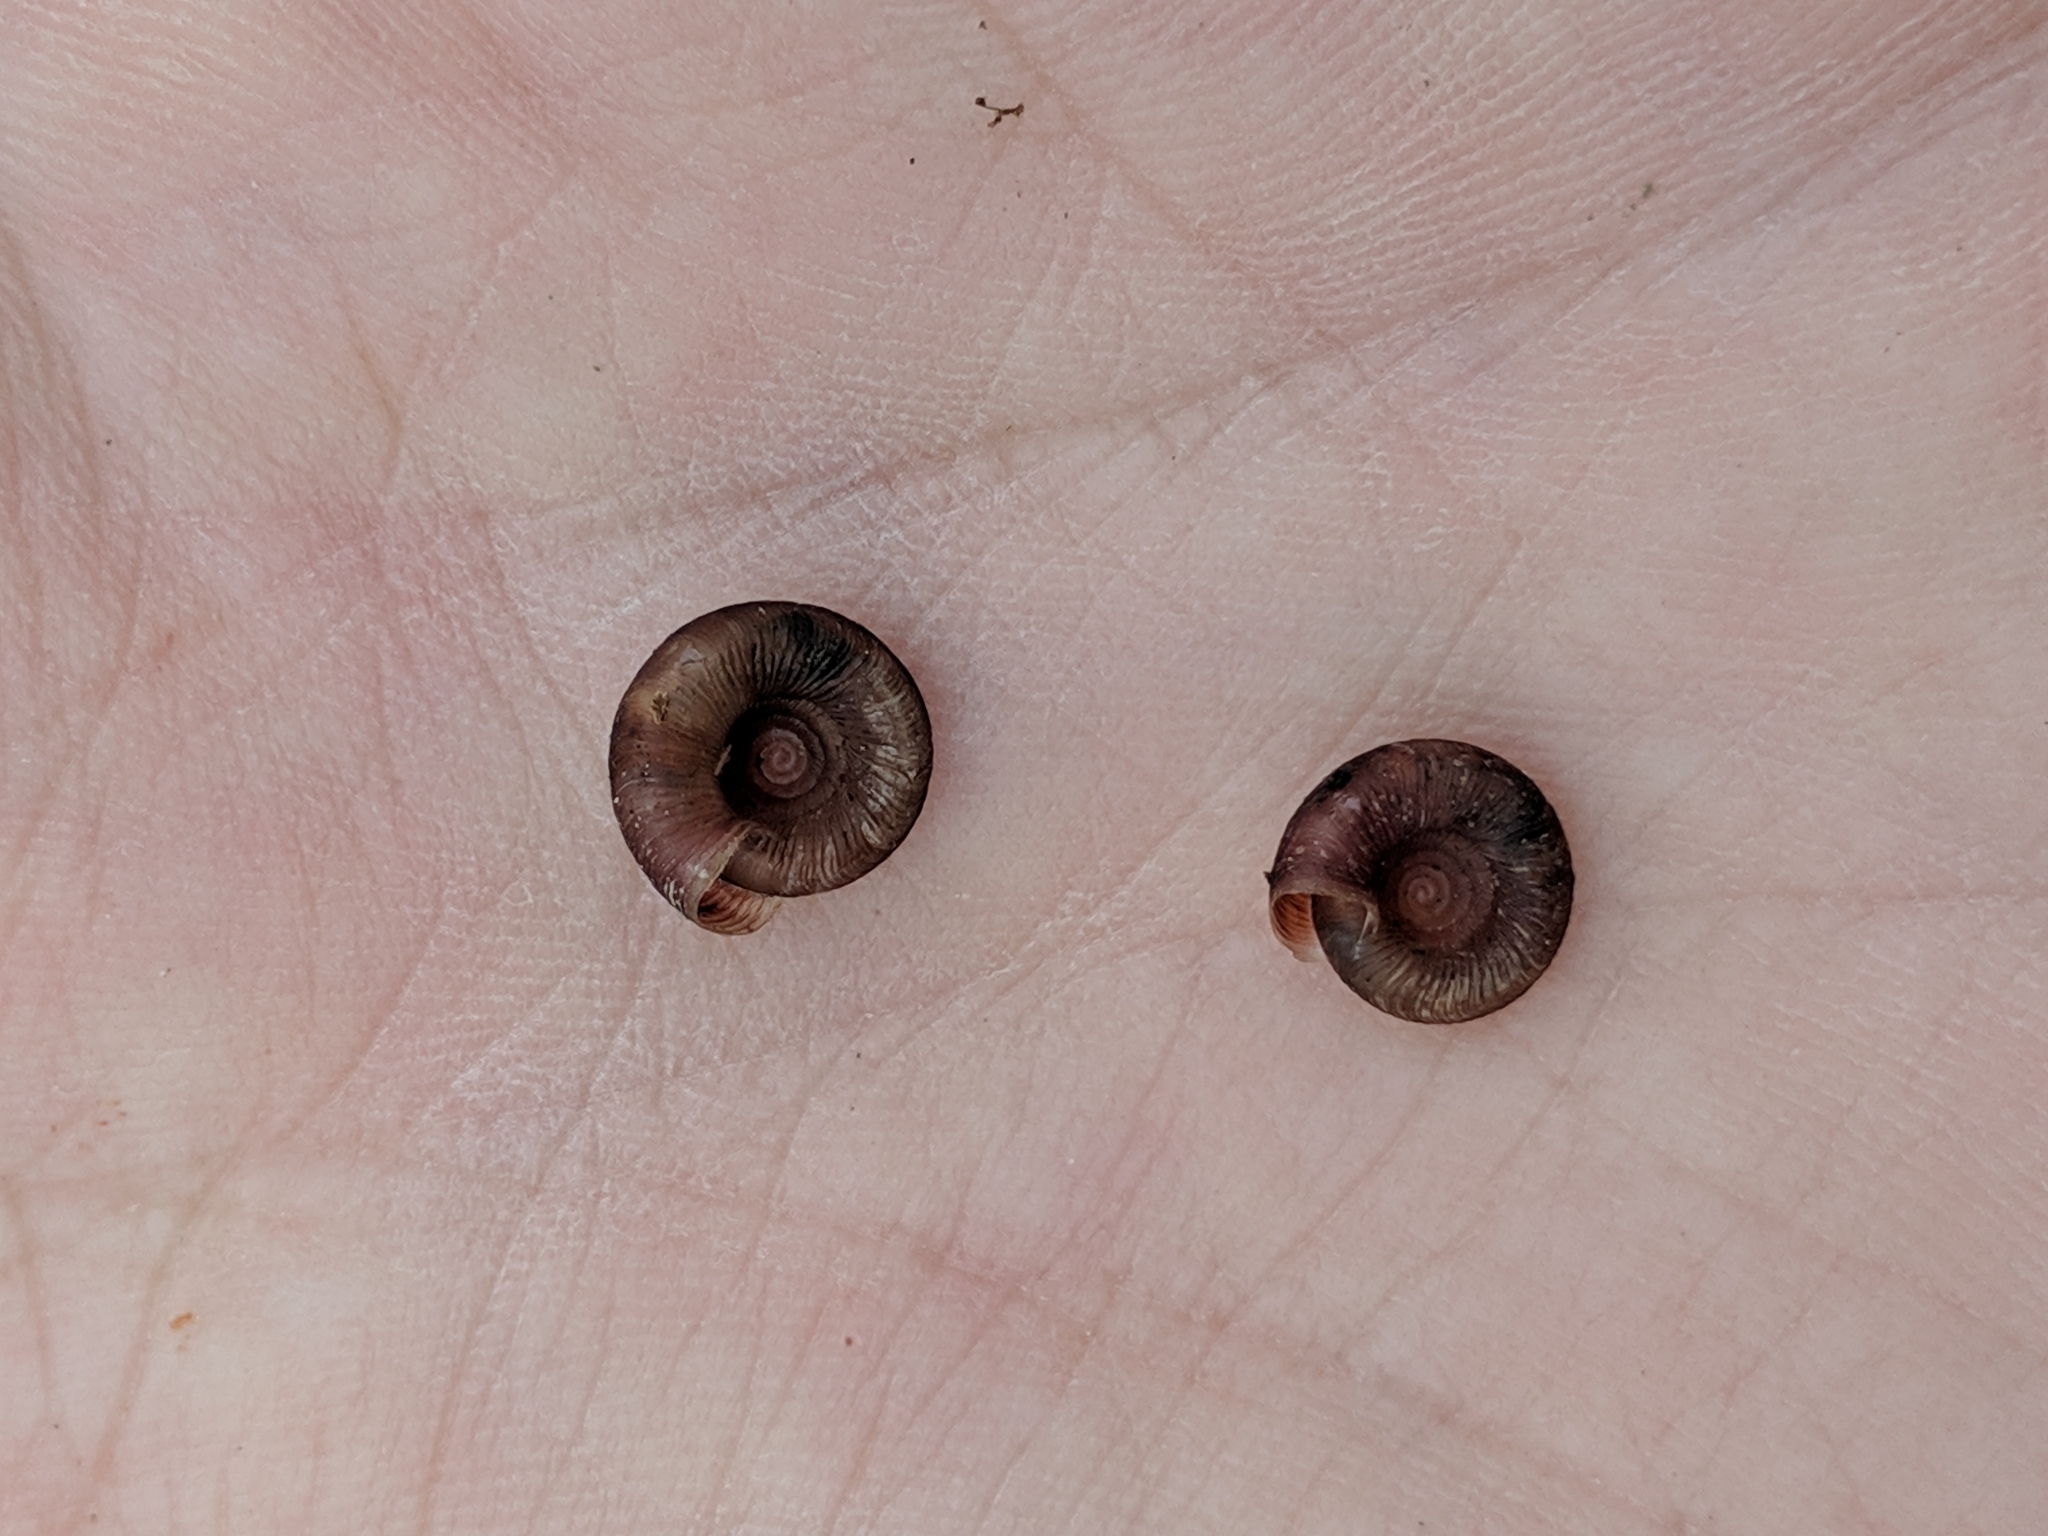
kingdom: Animalia
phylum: Mollusca
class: Gastropoda
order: Stylommatophora
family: Discidae
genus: Discus
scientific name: Discus patulus
